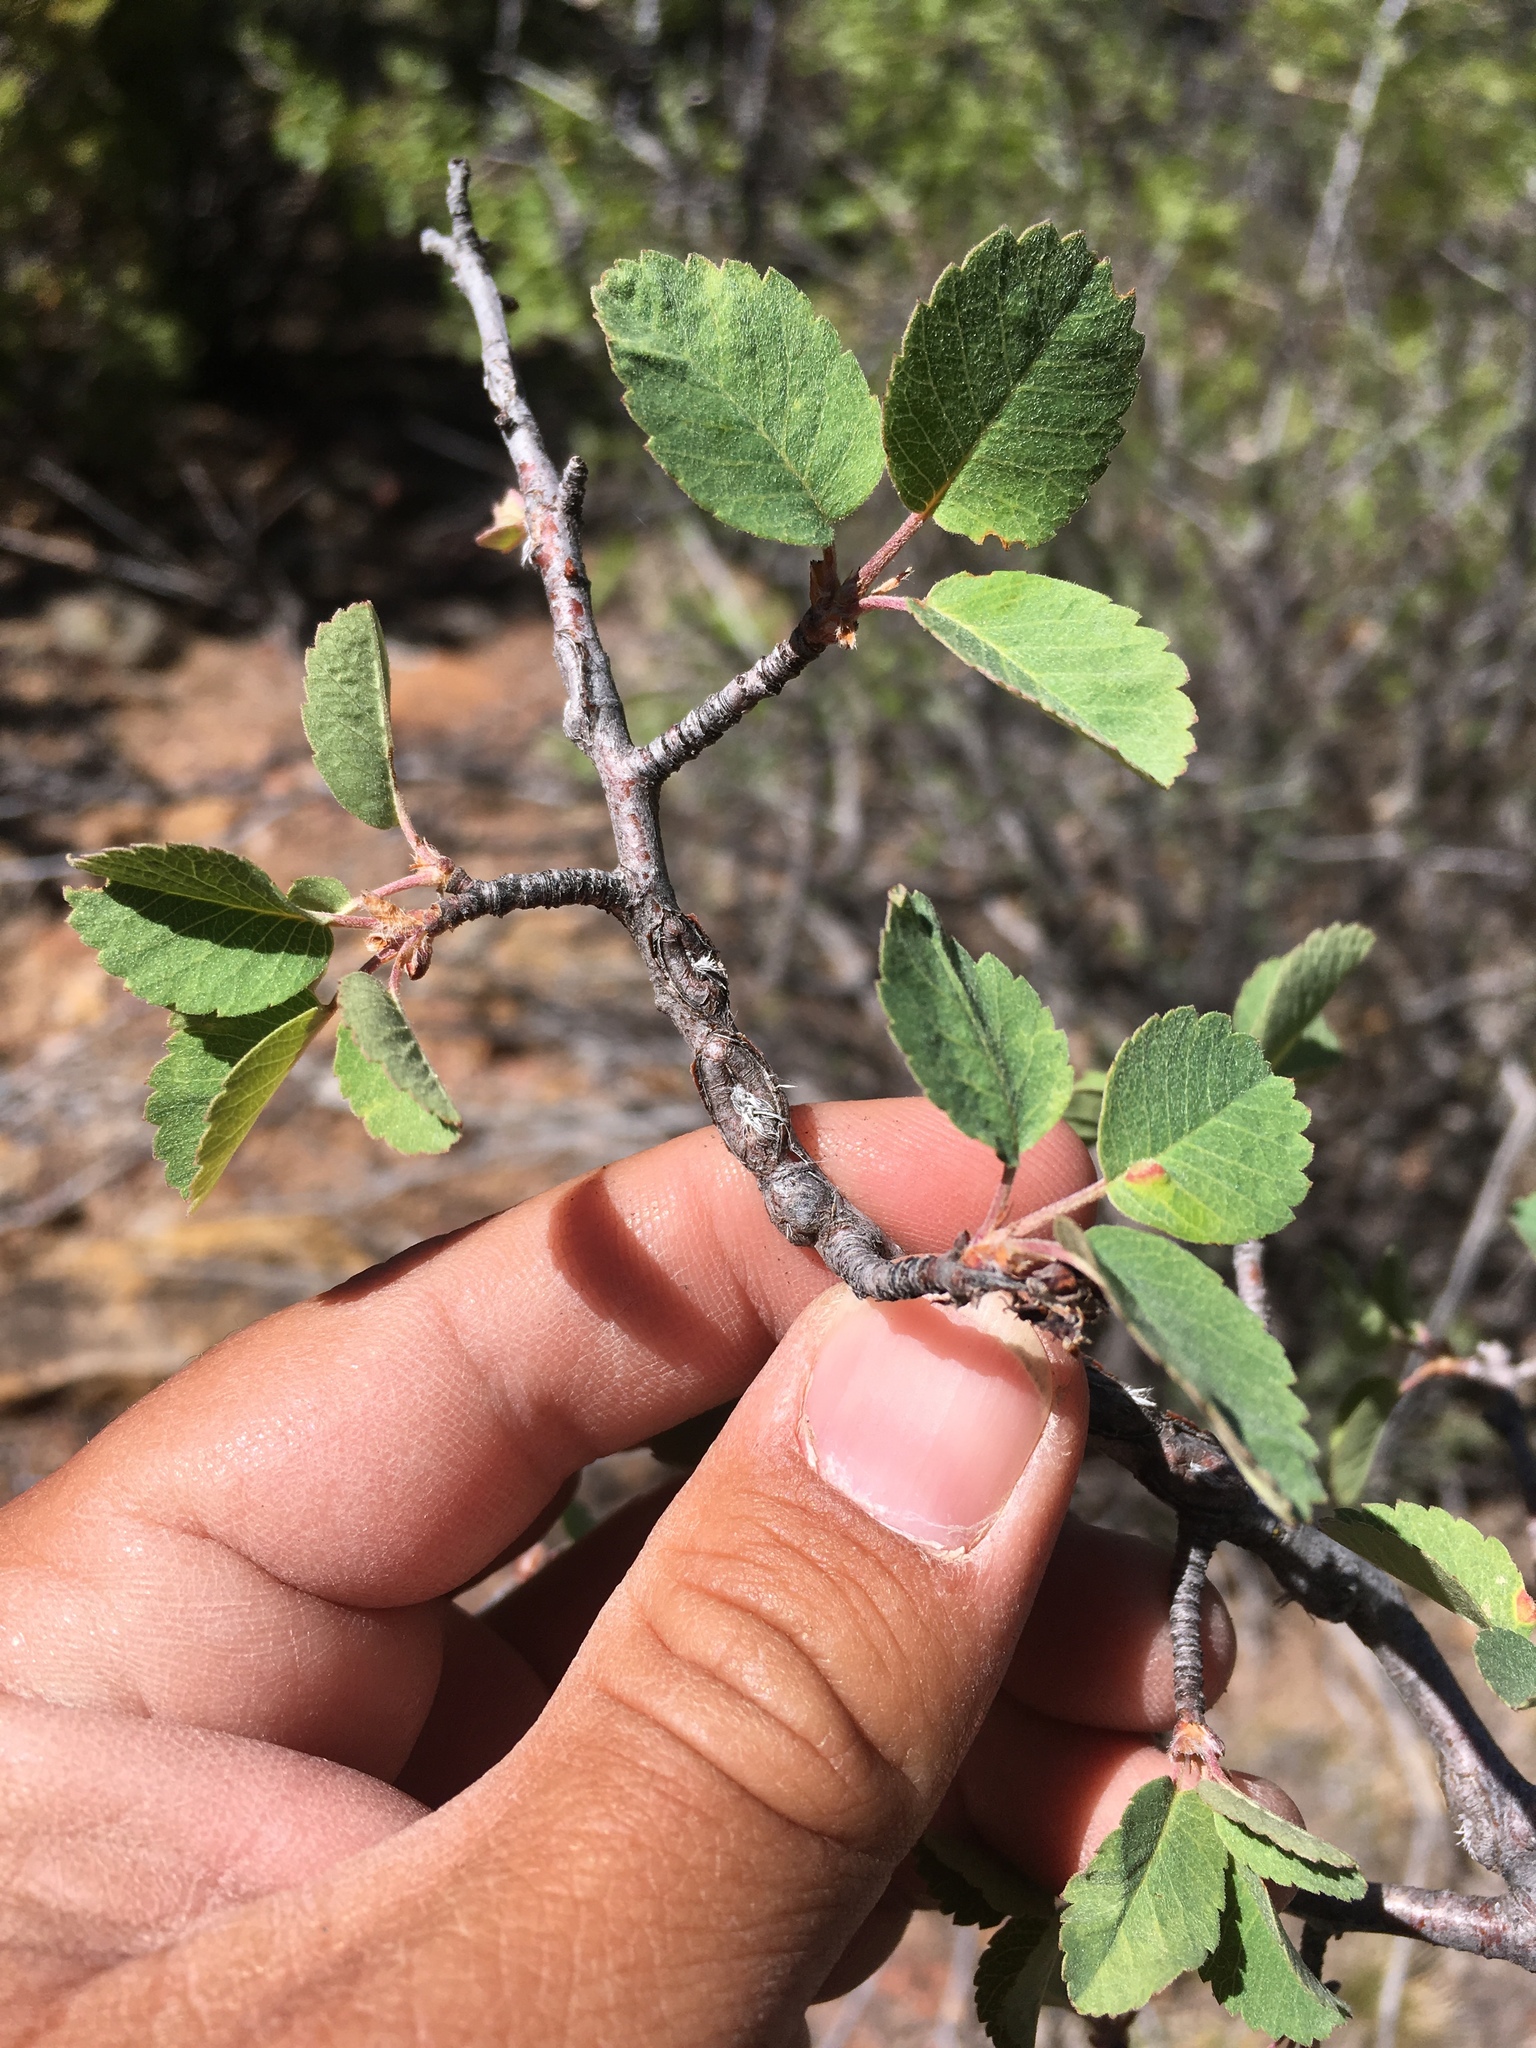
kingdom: Plantae
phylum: Tracheophyta
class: Magnoliopsida
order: Rosales
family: Rosaceae
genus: Amelanchier
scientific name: Amelanchier utahensis
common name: Utah serviceberry
